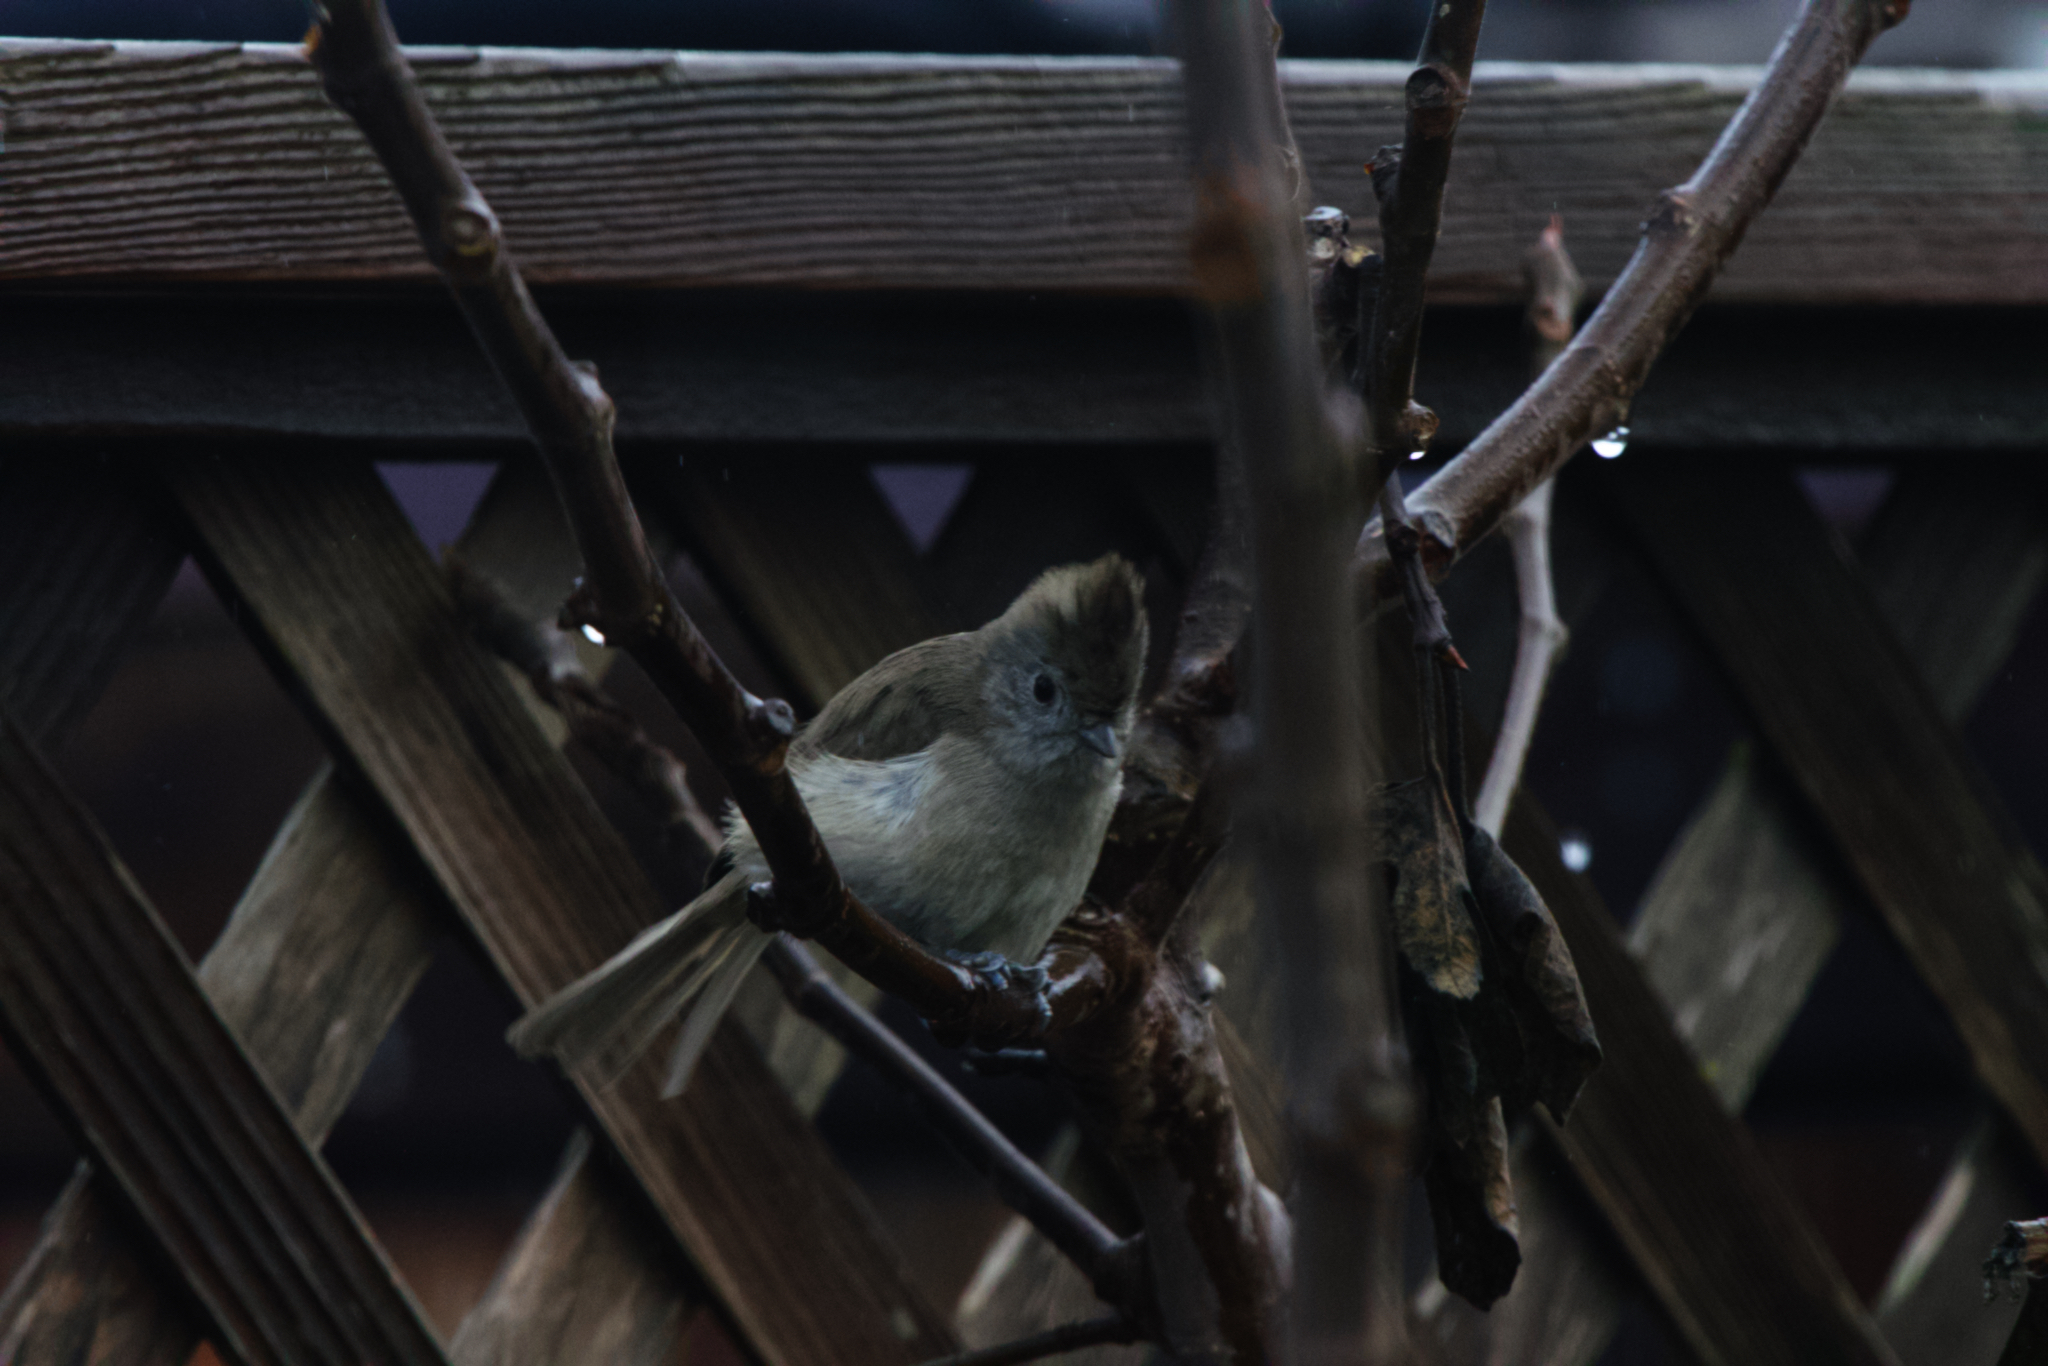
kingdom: Animalia
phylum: Chordata
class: Aves
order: Passeriformes
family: Paridae
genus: Baeolophus
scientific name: Baeolophus inornatus
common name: Oak titmouse
